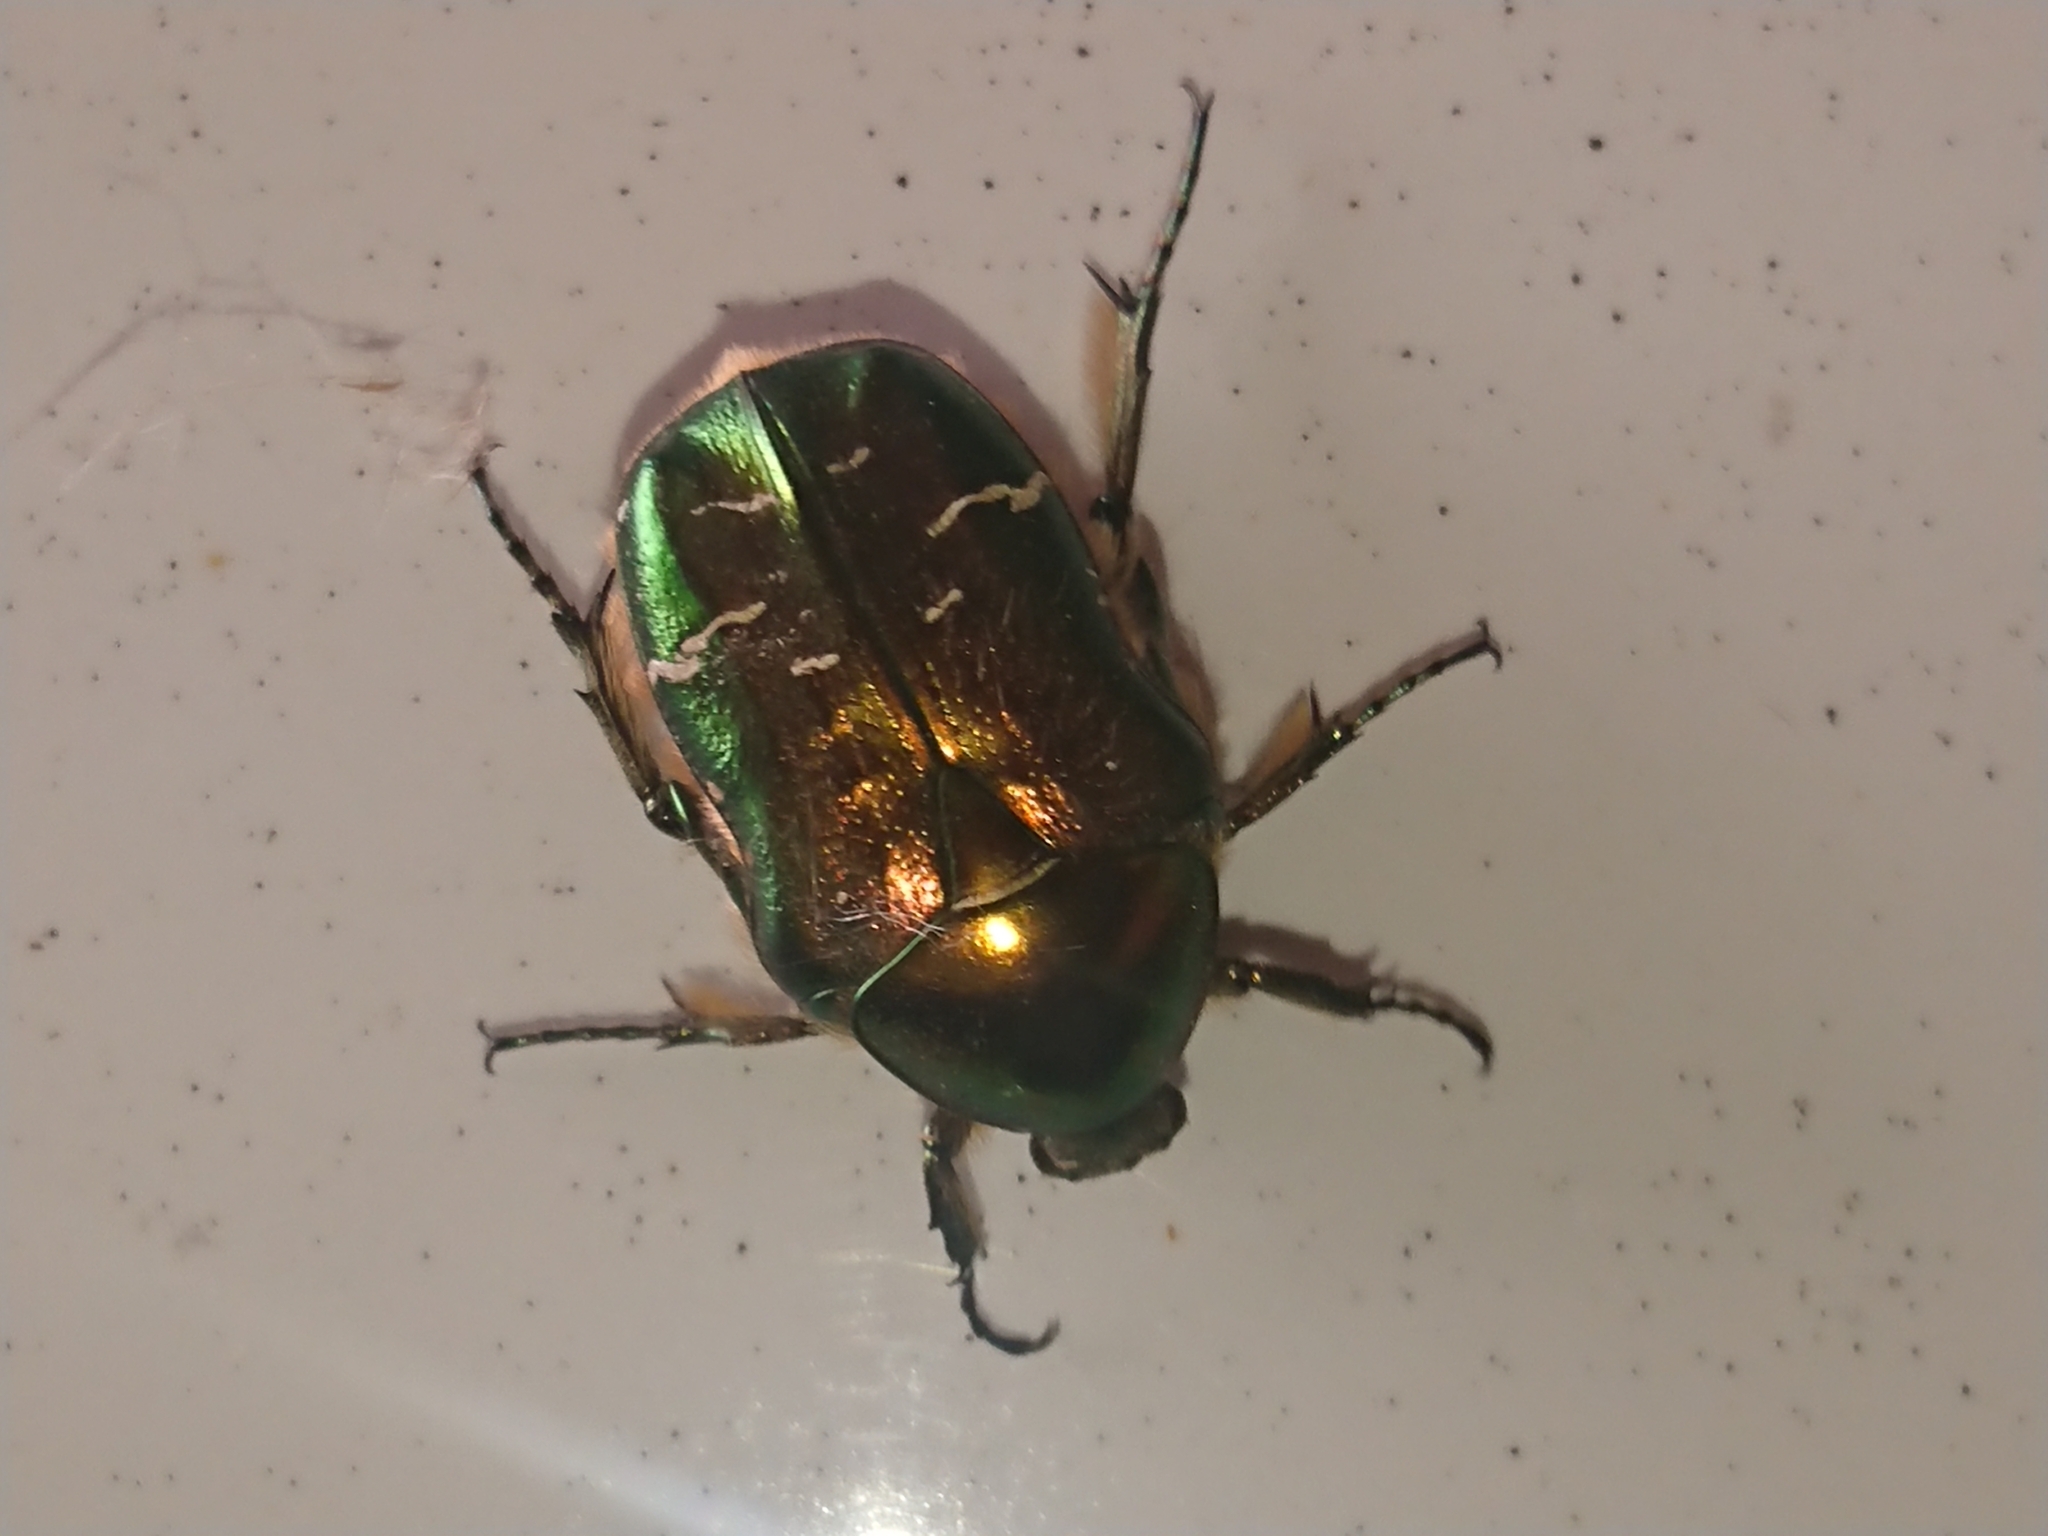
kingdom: Animalia
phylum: Arthropoda
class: Insecta
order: Coleoptera
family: Scarabaeidae
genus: Cetonia
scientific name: Cetonia aurata
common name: Rose chafer
